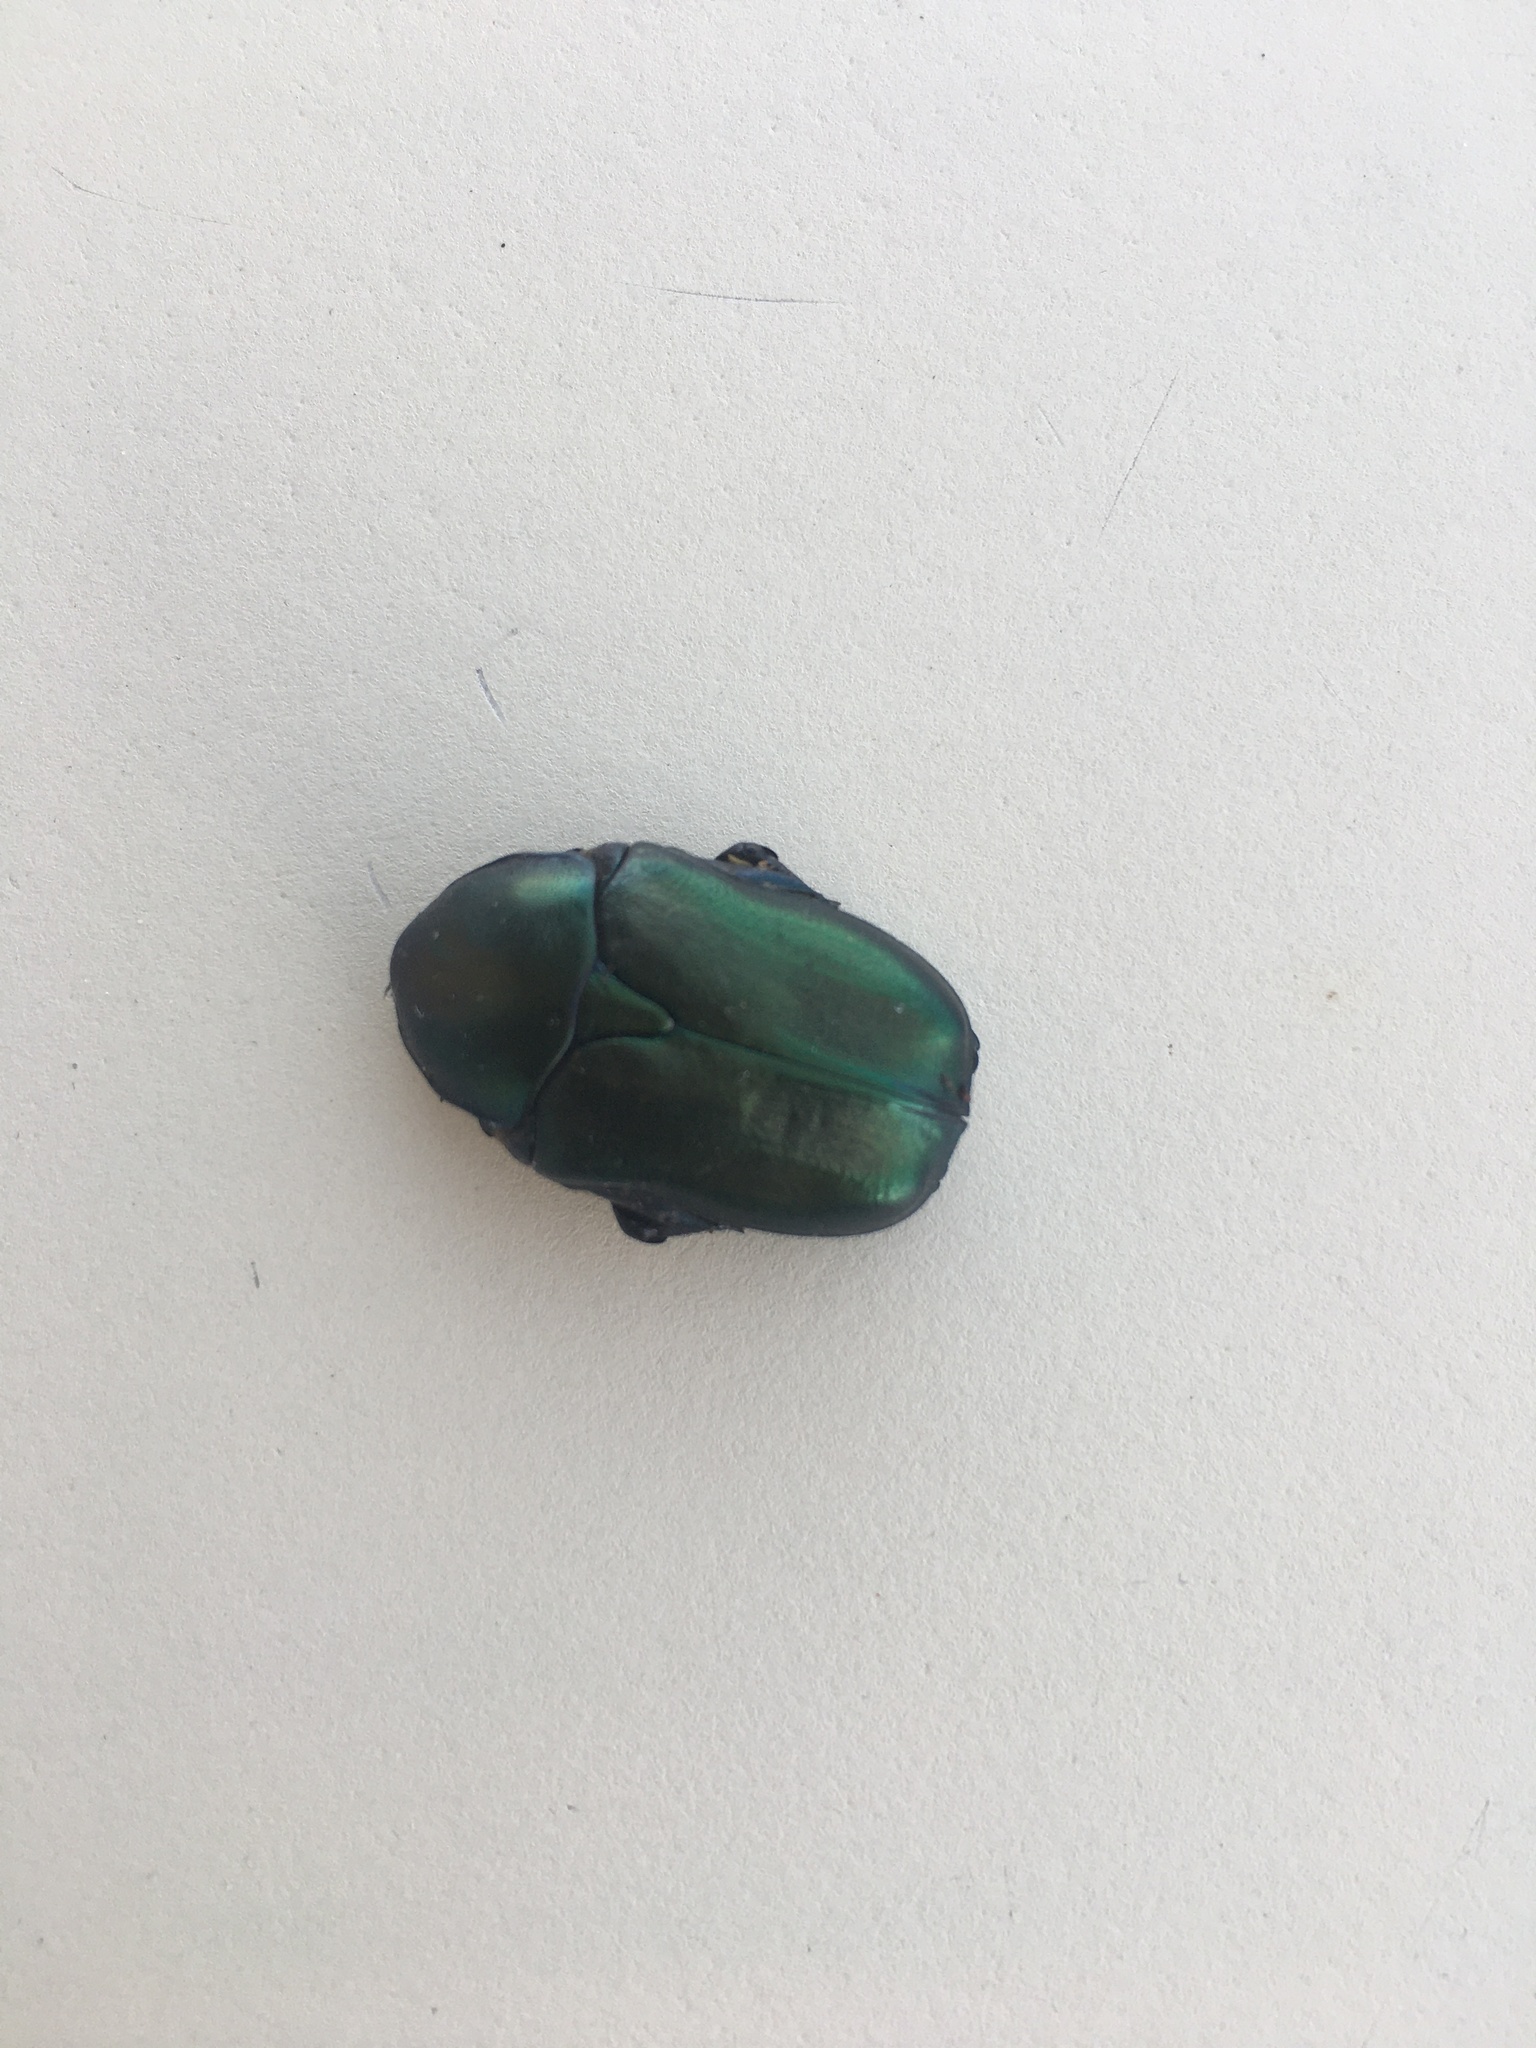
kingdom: Animalia
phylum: Arthropoda
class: Insecta
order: Coleoptera
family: Scarabaeidae
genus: Protaetia
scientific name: Protaetia angustata
